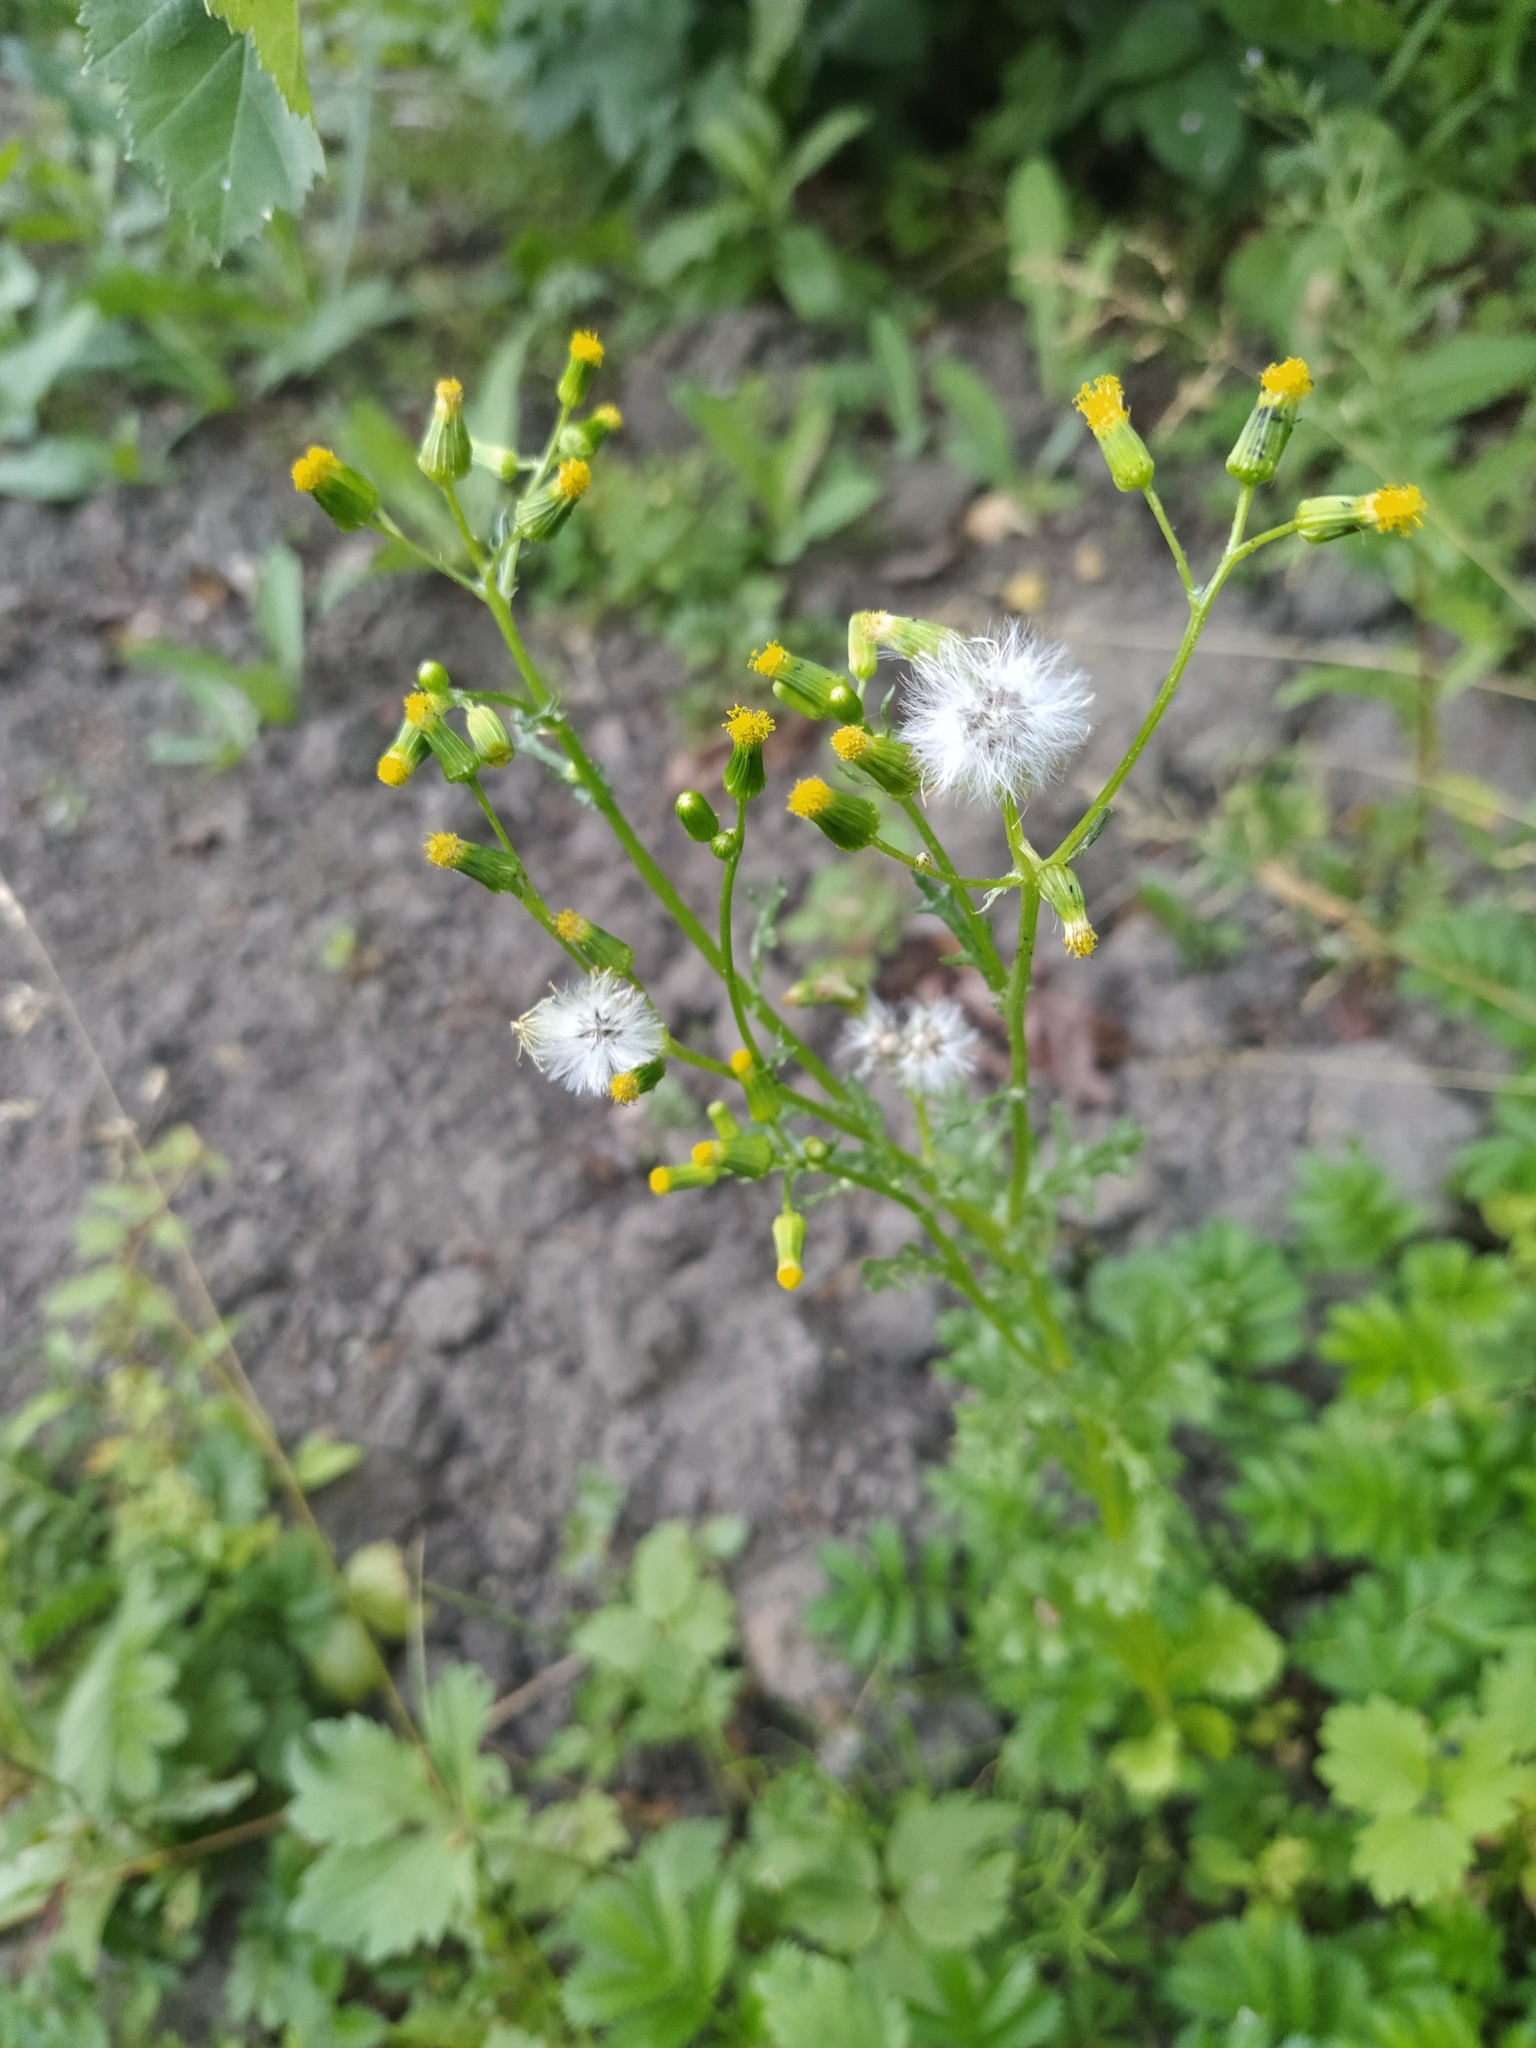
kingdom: Plantae
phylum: Tracheophyta
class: Magnoliopsida
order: Asterales
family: Asteraceae
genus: Senecio
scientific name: Senecio vulgaris
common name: Old-man-in-the-spring
